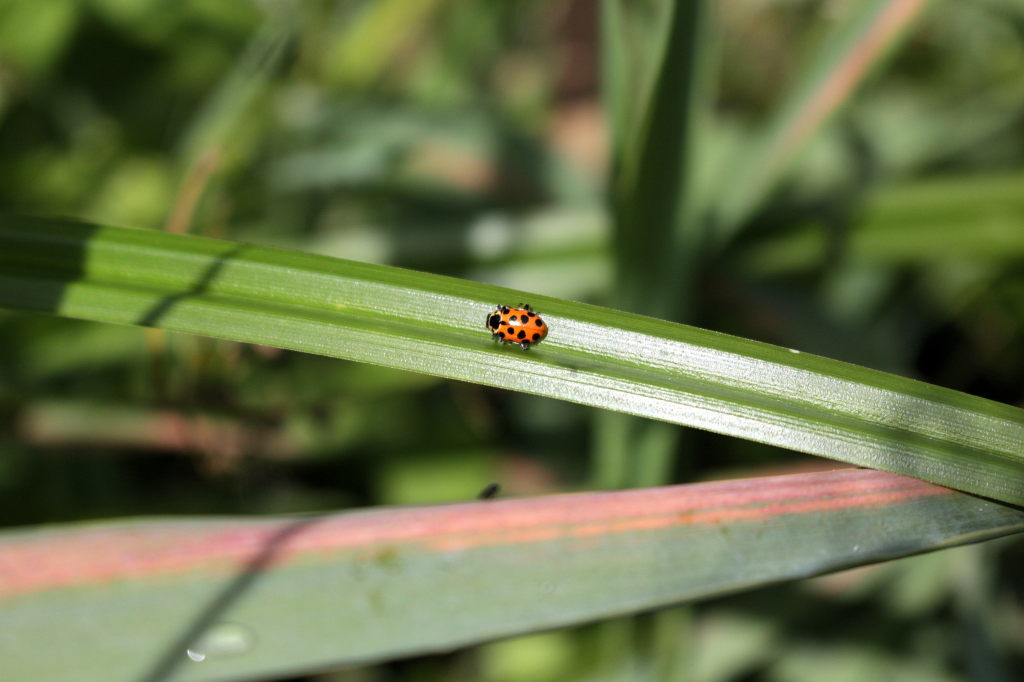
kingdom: Animalia
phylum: Arthropoda
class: Insecta
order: Coleoptera
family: Coccinellidae
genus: Hippodamia
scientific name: Hippodamia tredecimpunctata
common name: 13-spot ladybird
